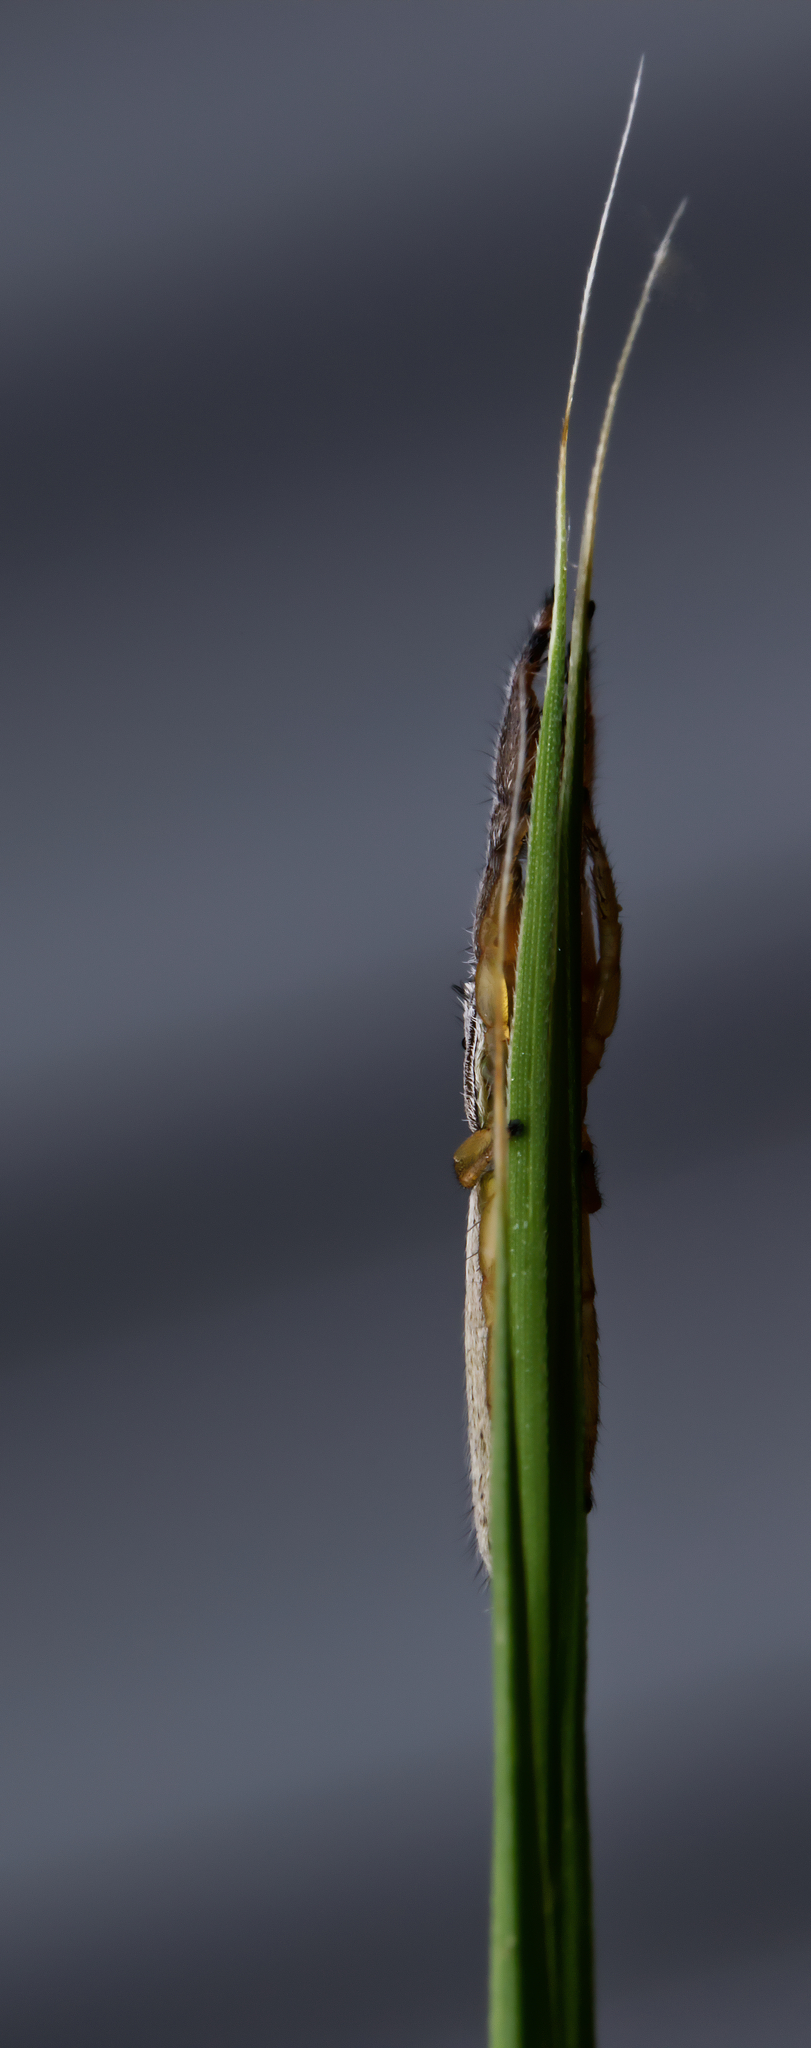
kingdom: Animalia
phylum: Arthropoda
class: Arachnida
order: Araneae
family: Salticidae
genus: Marpissa
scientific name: Marpissa pikei
